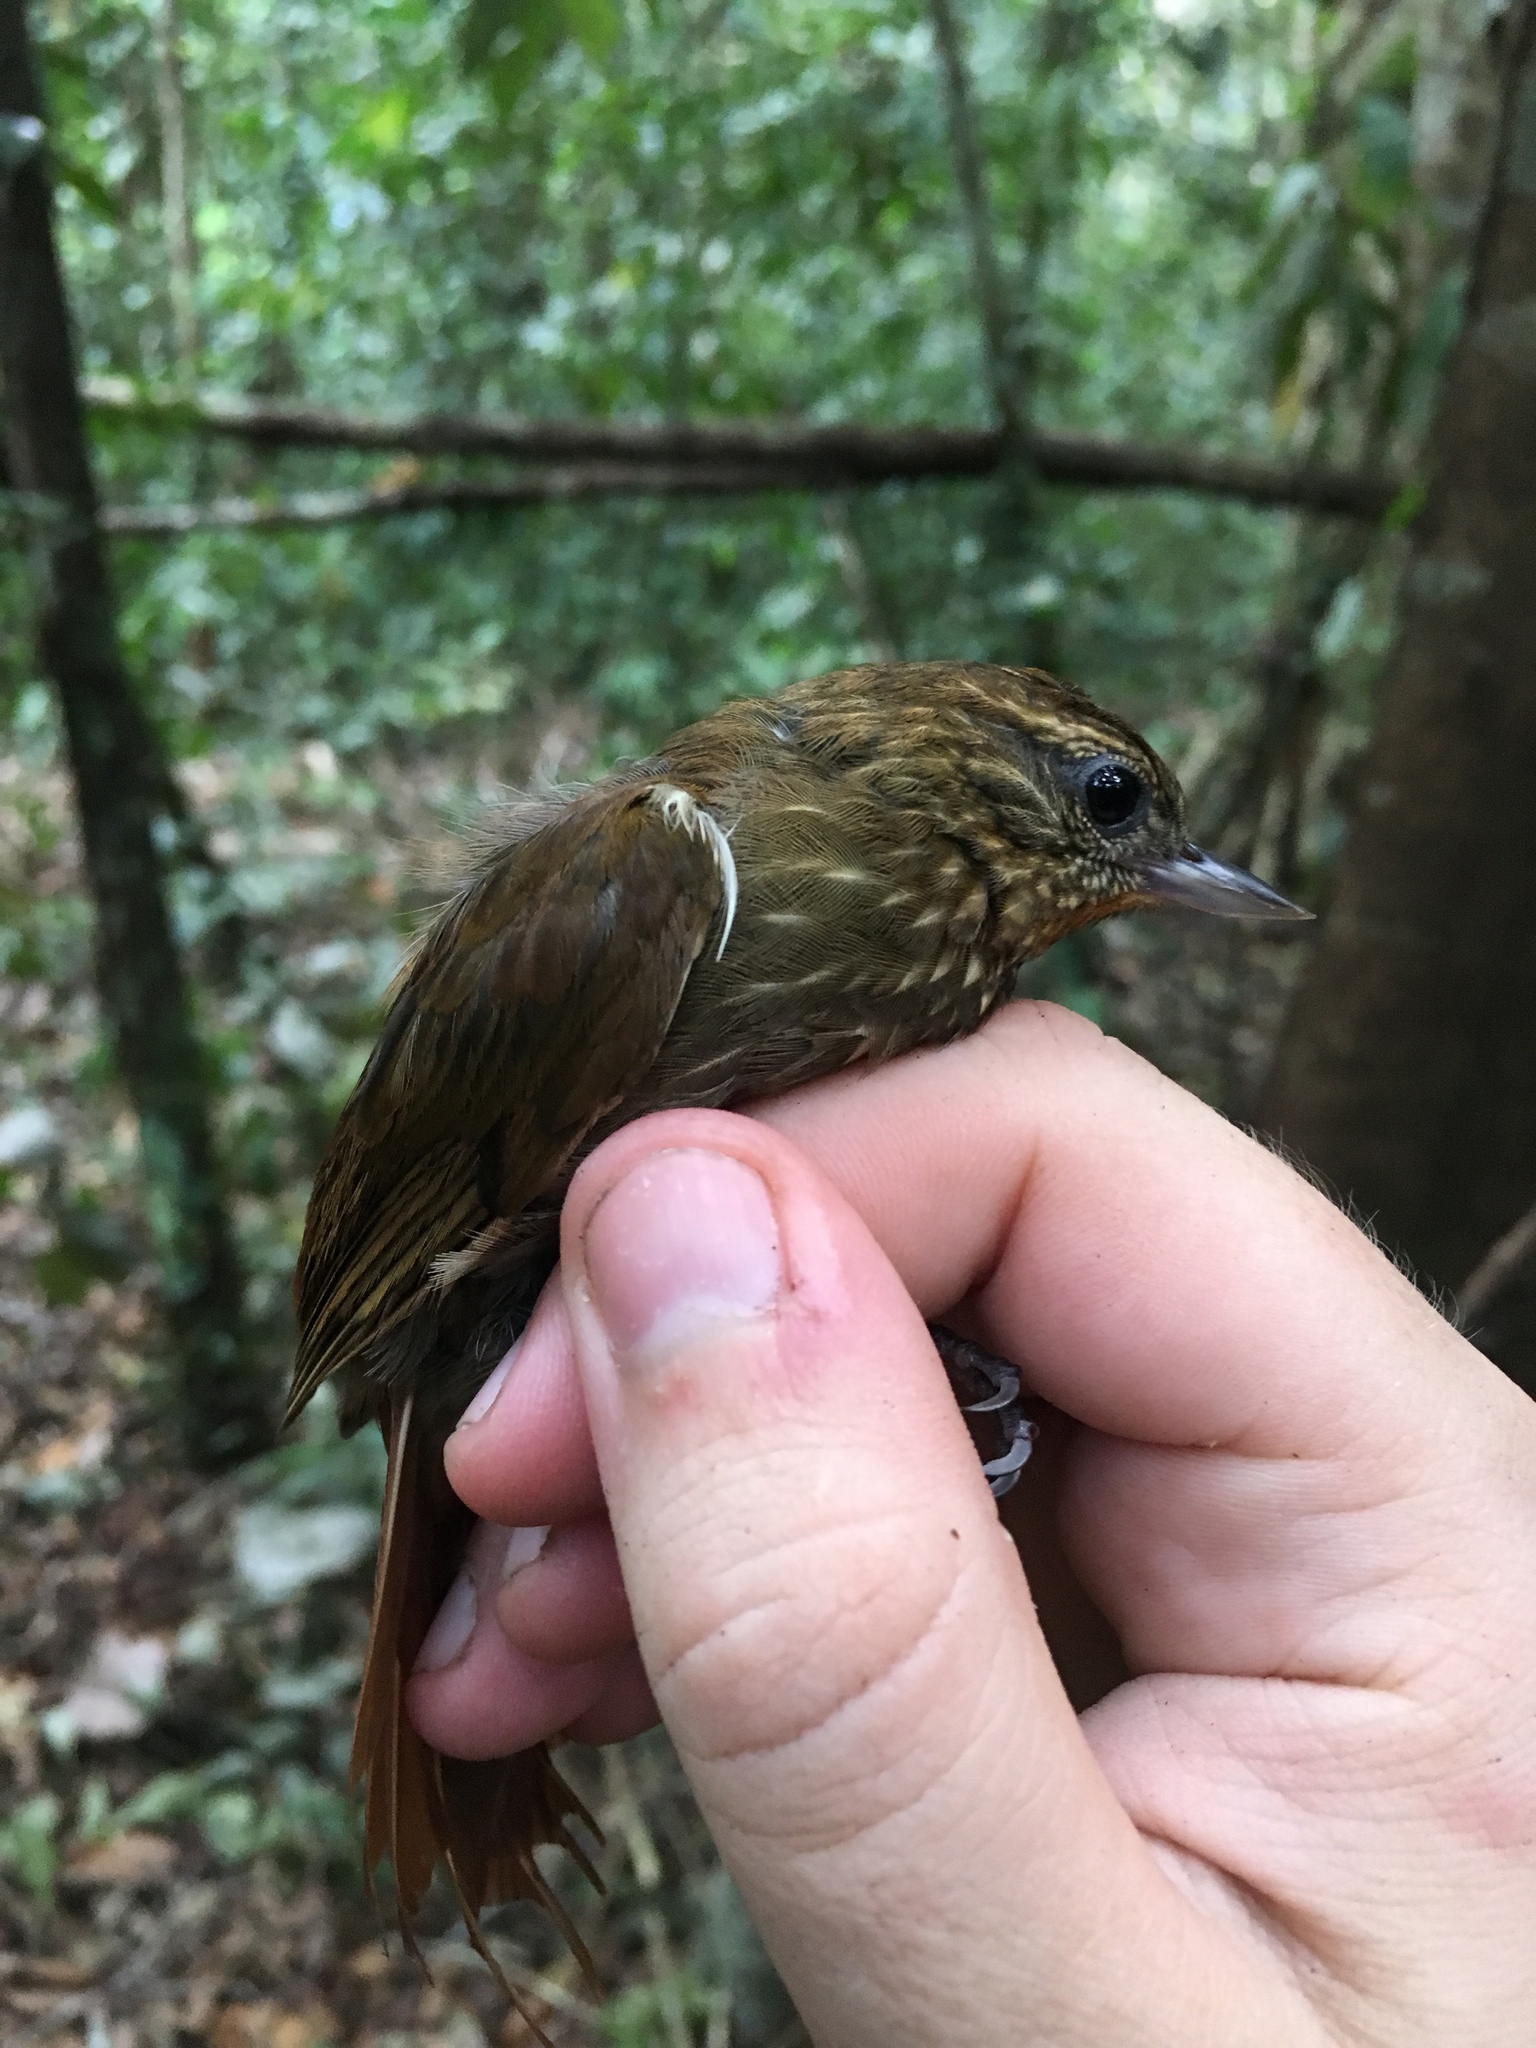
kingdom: Animalia
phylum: Chordata
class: Aves
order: Passeriformes
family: Furnariidae
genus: Glyphorynchus
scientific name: Glyphorynchus spirurus
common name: Wedge-billed woodcreeper
